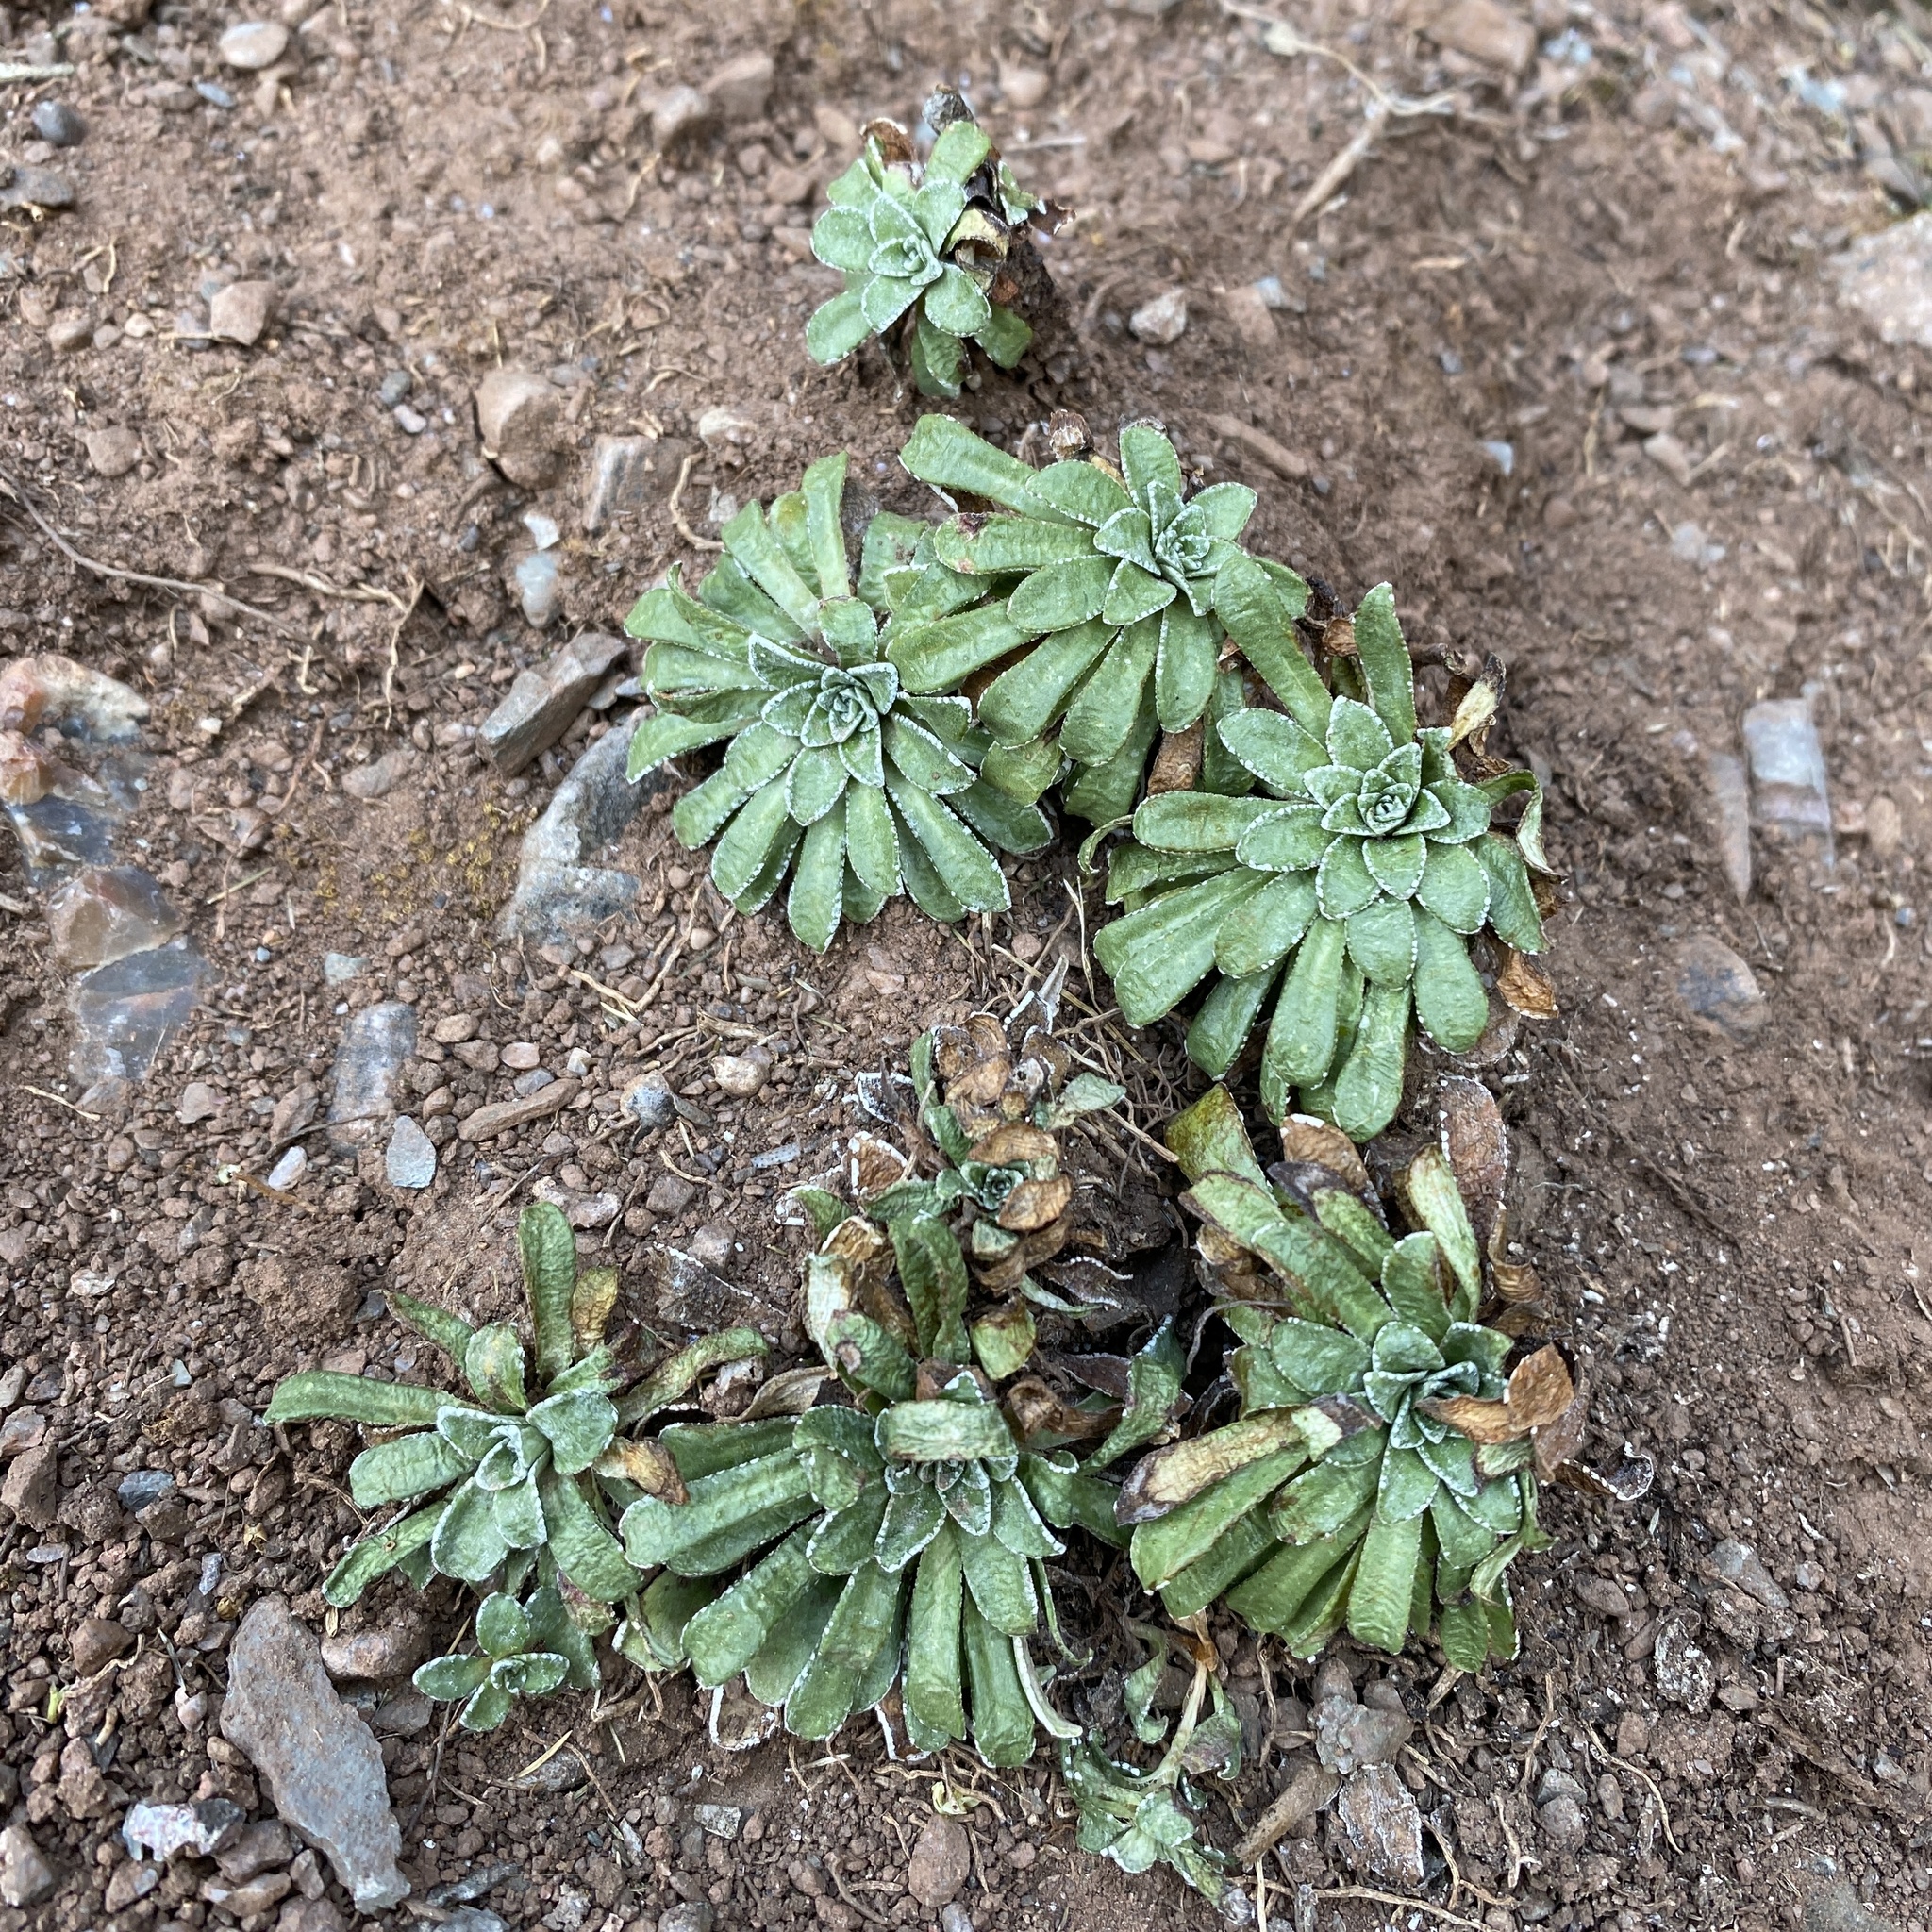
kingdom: Plantae
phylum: Tracheophyta
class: Magnoliopsida
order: Saxifragales
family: Saxifragaceae
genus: Saxifraga
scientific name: Saxifraga catalaunica
